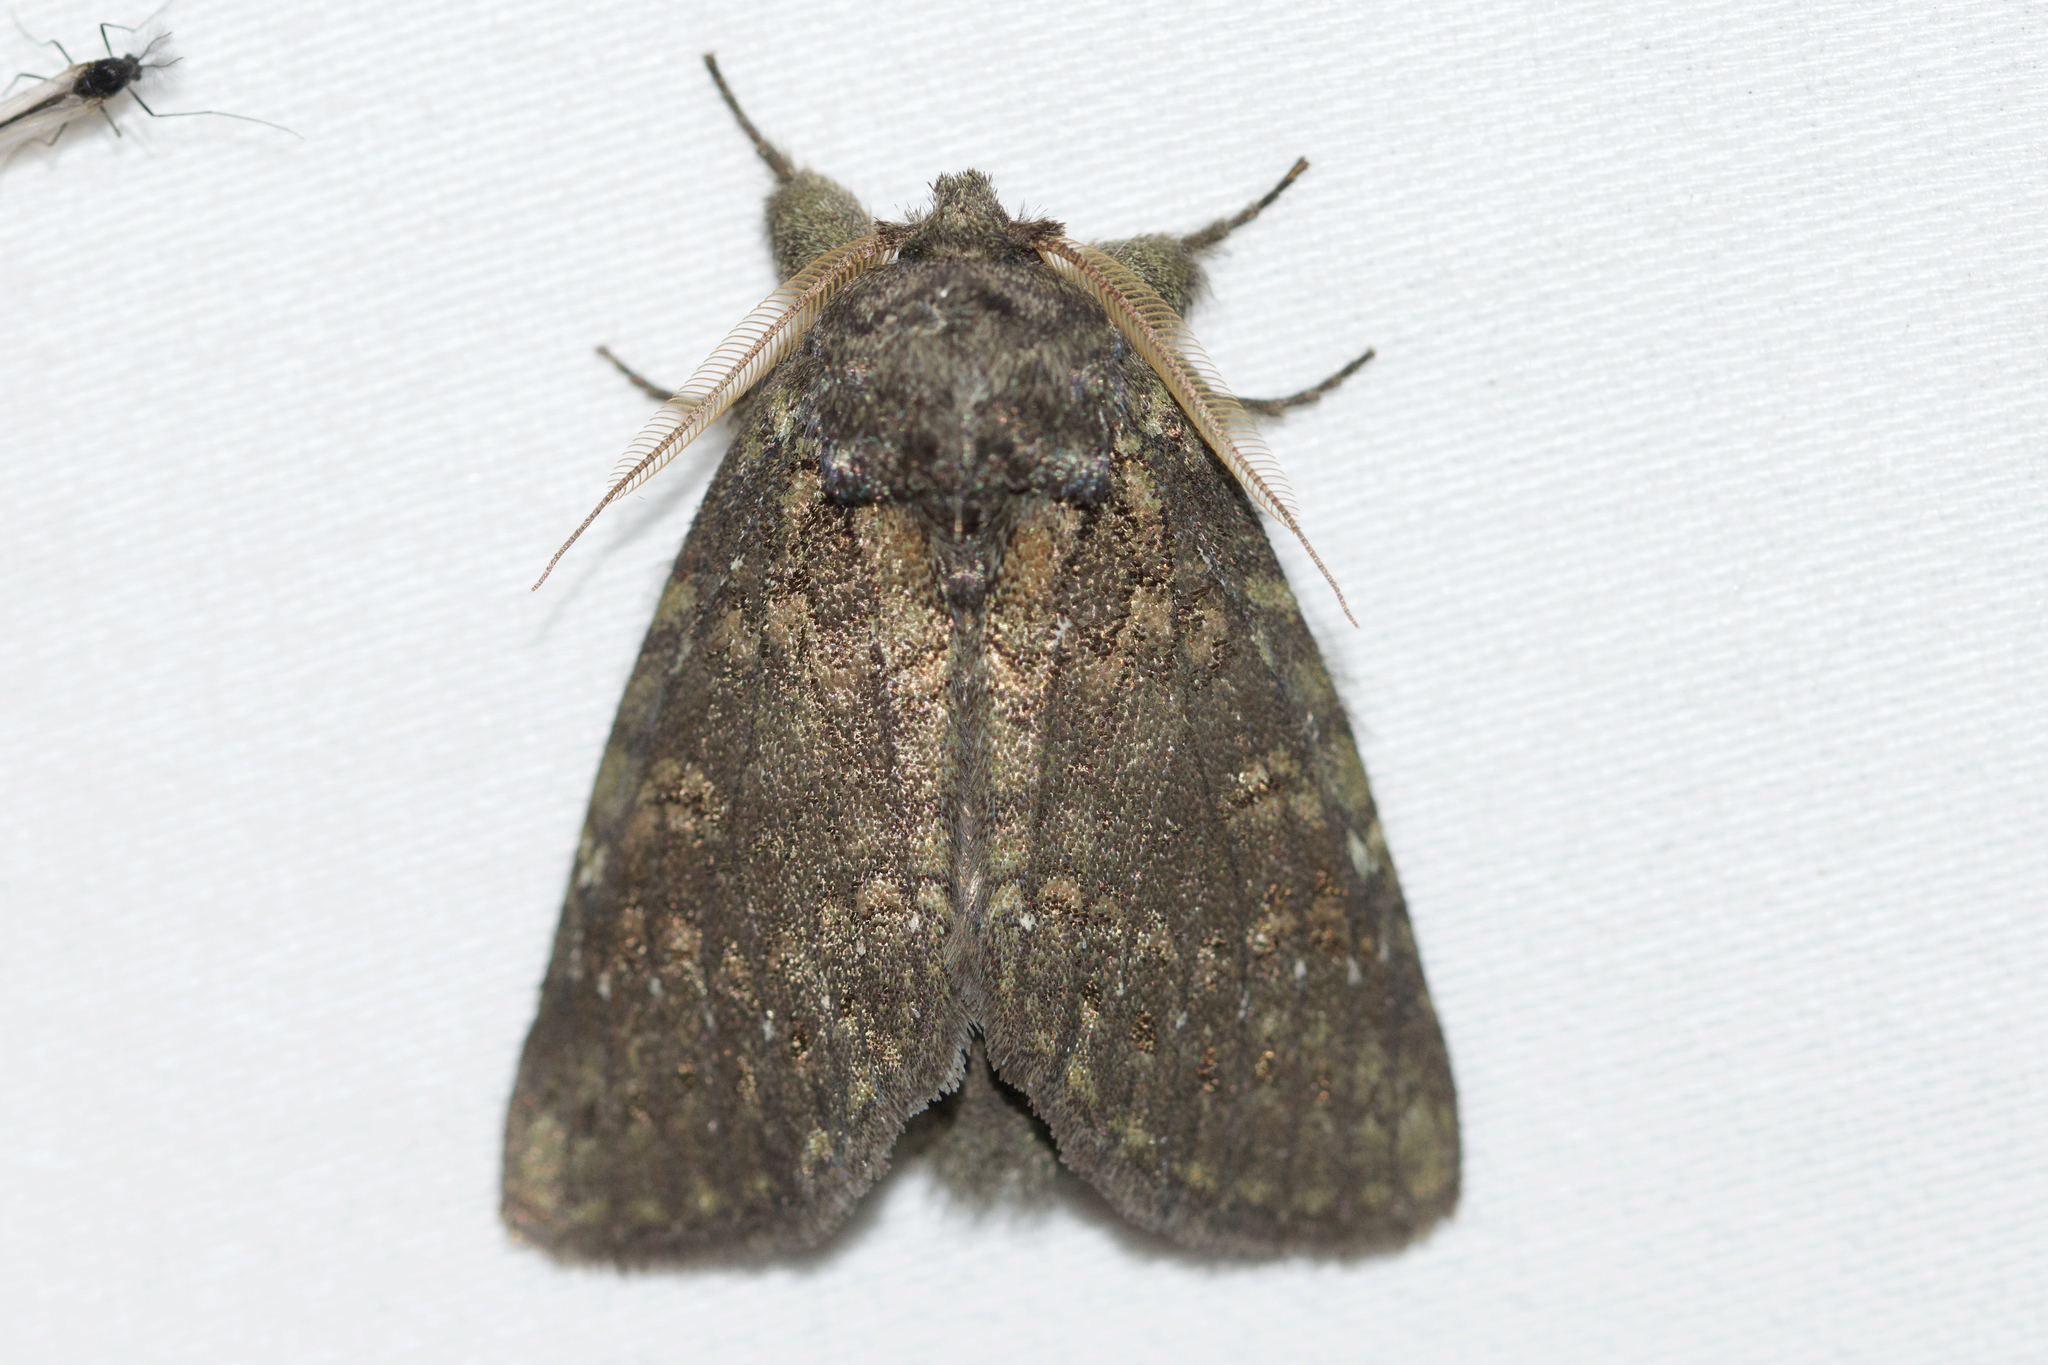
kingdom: Animalia
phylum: Arthropoda
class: Insecta
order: Lepidoptera
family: Notodontidae
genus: Disphragis
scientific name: Disphragis Cecrita guttivitta
